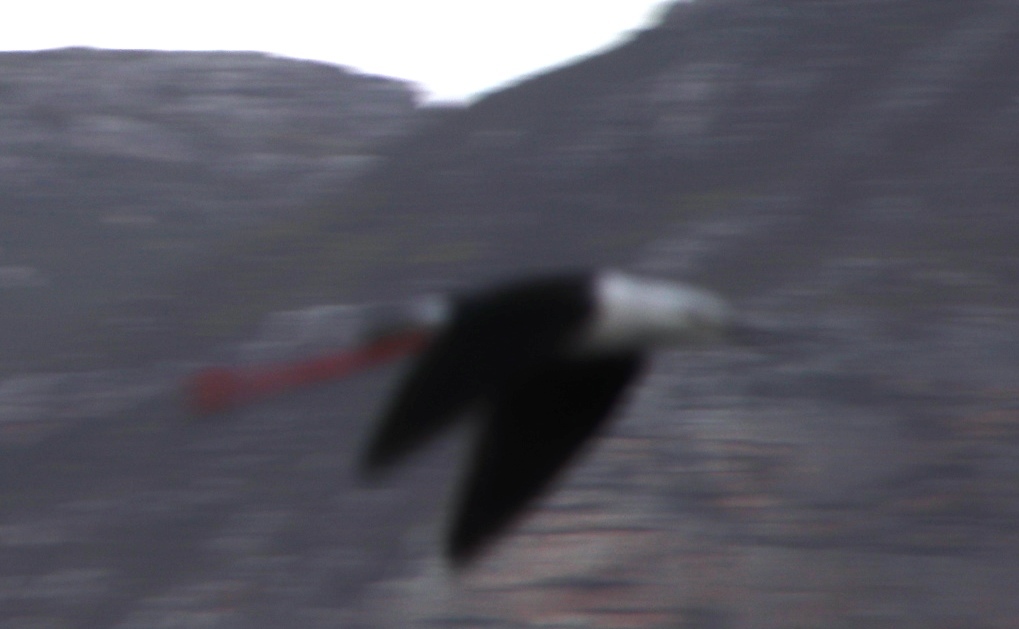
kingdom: Animalia
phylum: Chordata
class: Aves
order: Charadriiformes
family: Recurvirostridae
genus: Himantopus
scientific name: Himantopus himantopus
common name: Black-winged stilt
